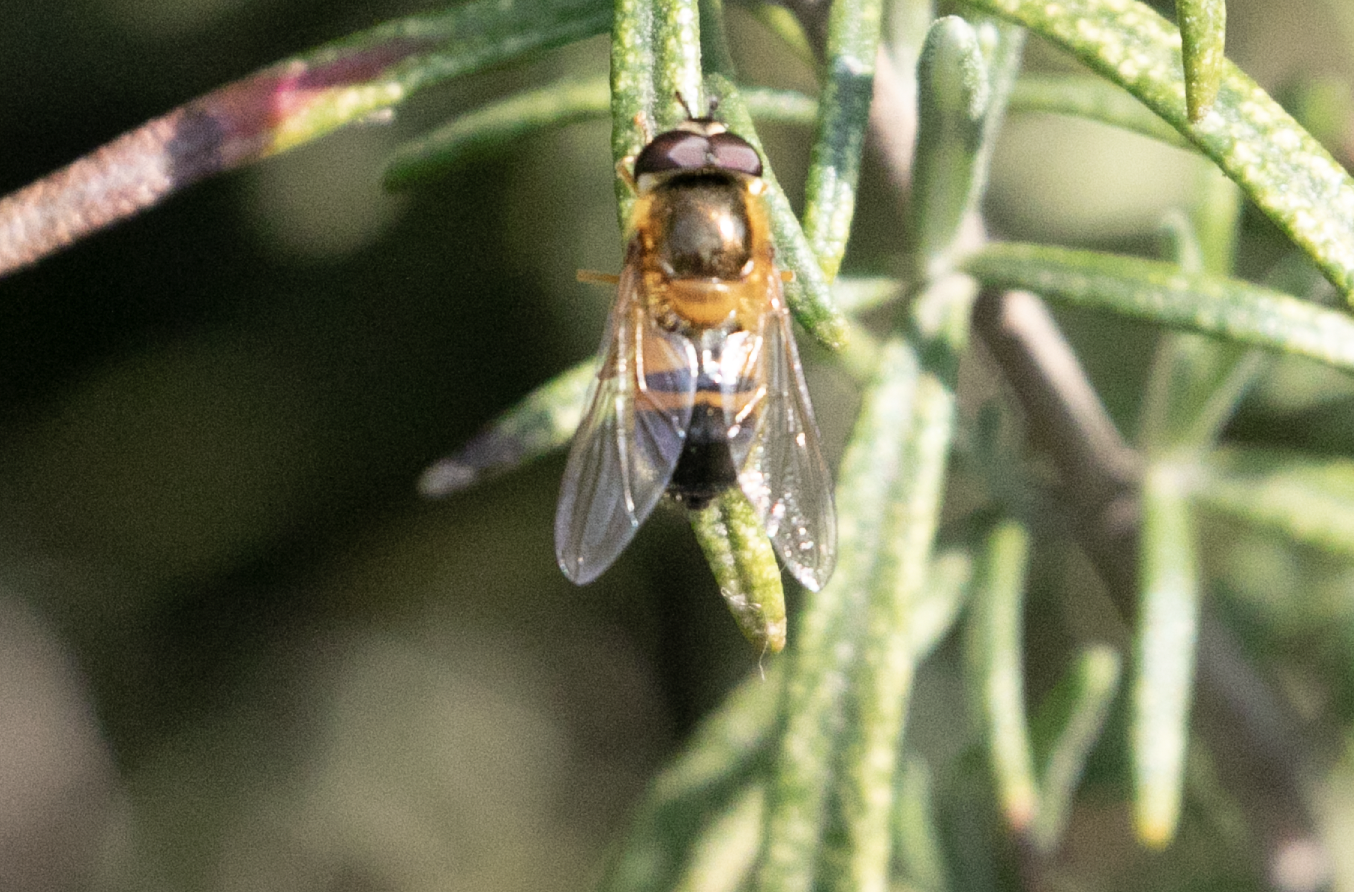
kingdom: Animalia
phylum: Arthropoda
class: Insecta
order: Diptera
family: Syrphidae
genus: Epistrophe
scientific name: Epistrophe eligans
